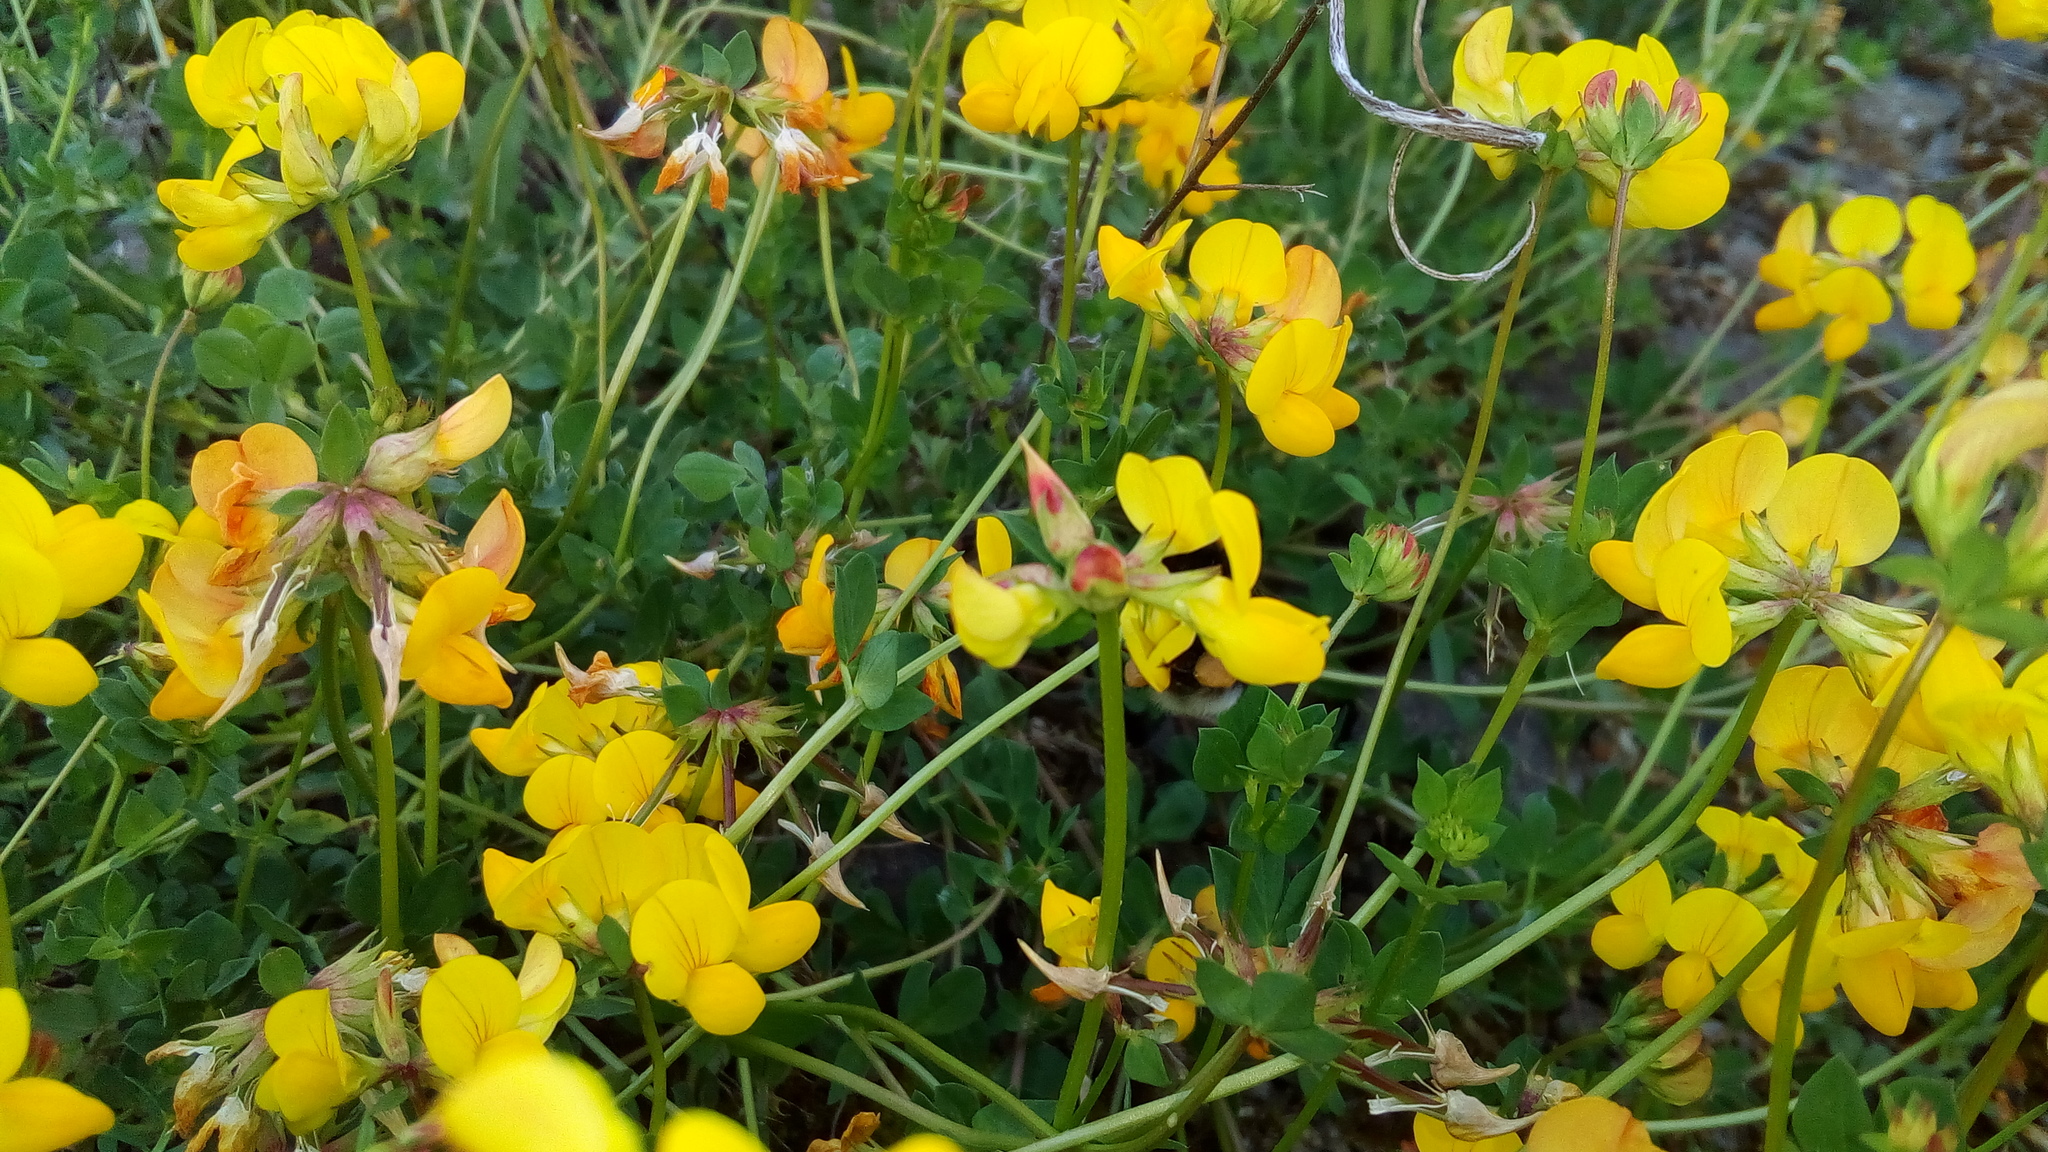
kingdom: Plantae
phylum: Tracheophyta
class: Magnoliopsida
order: Fabales
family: Fabaceae
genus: Lotus
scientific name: Lotus corniculatus
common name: Common bird's-foot-trefoil
